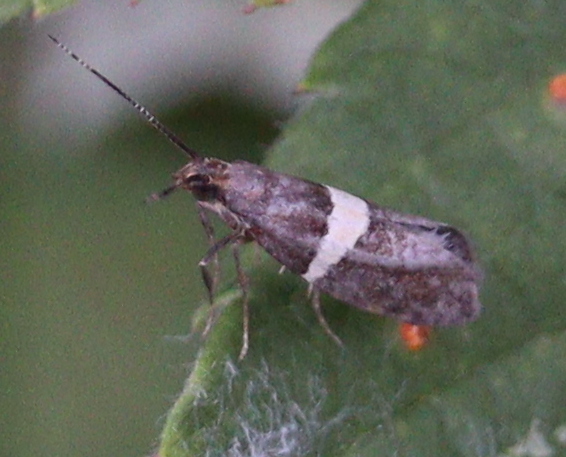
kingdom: Animalia
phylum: Arthropoda
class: Insecta
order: Lepidoptera
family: Plutellidae
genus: Eidophasia
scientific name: Eidophasia messingiella
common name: Bitter-cress smudge
